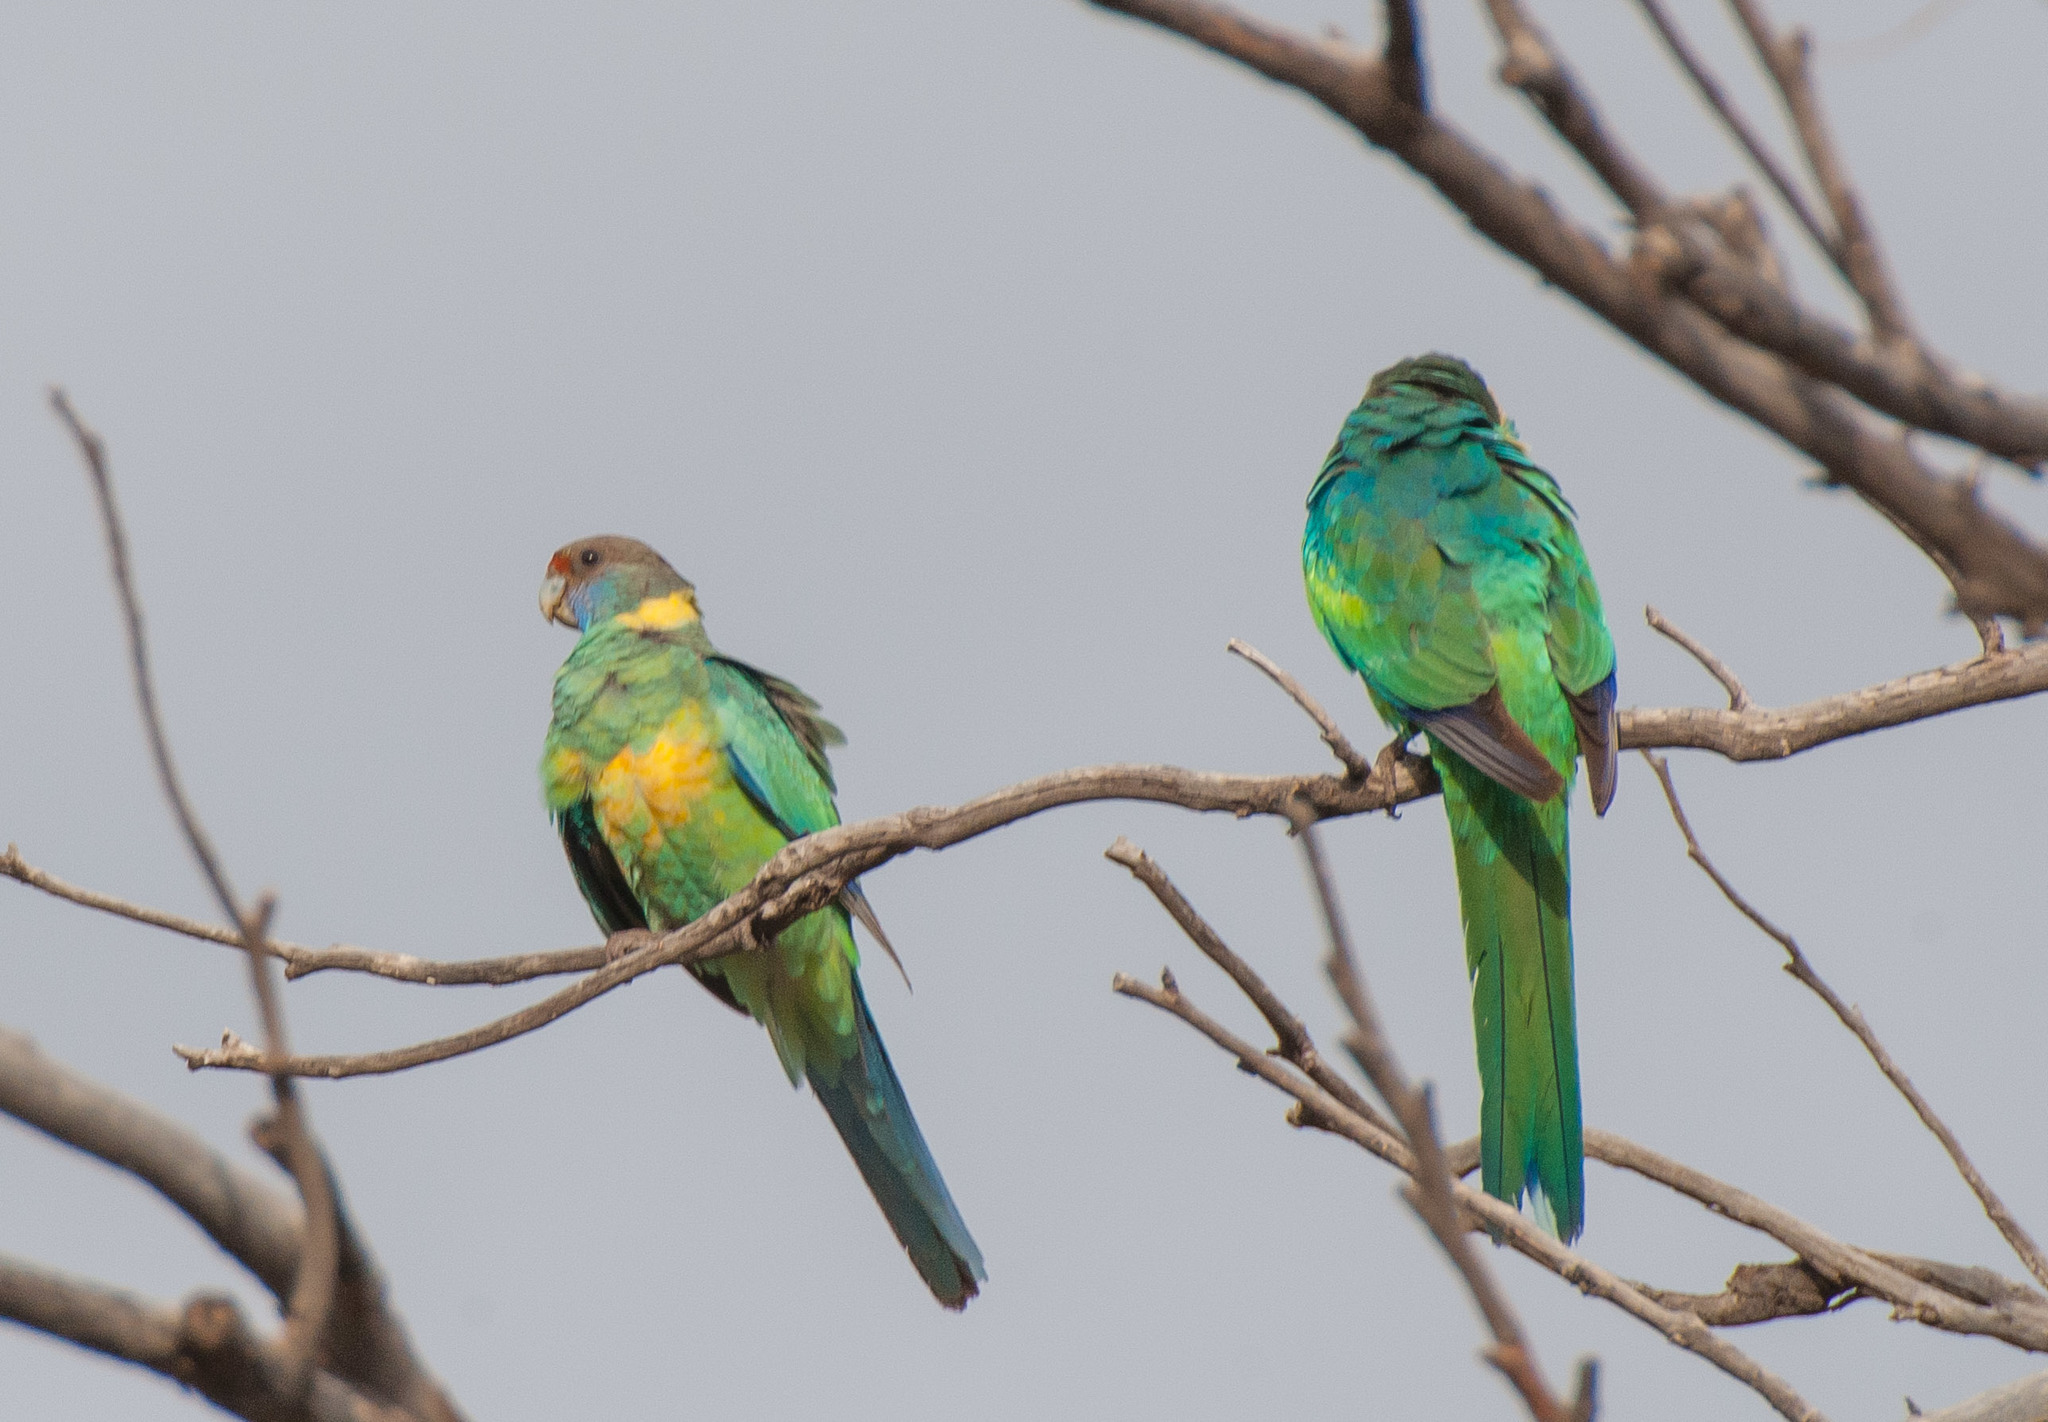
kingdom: Animalia
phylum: Chordata
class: Aves
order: Psittaciformes
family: Psittacidae
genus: Barnardius
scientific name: Barnardius zonarius
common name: Australian ringneck
